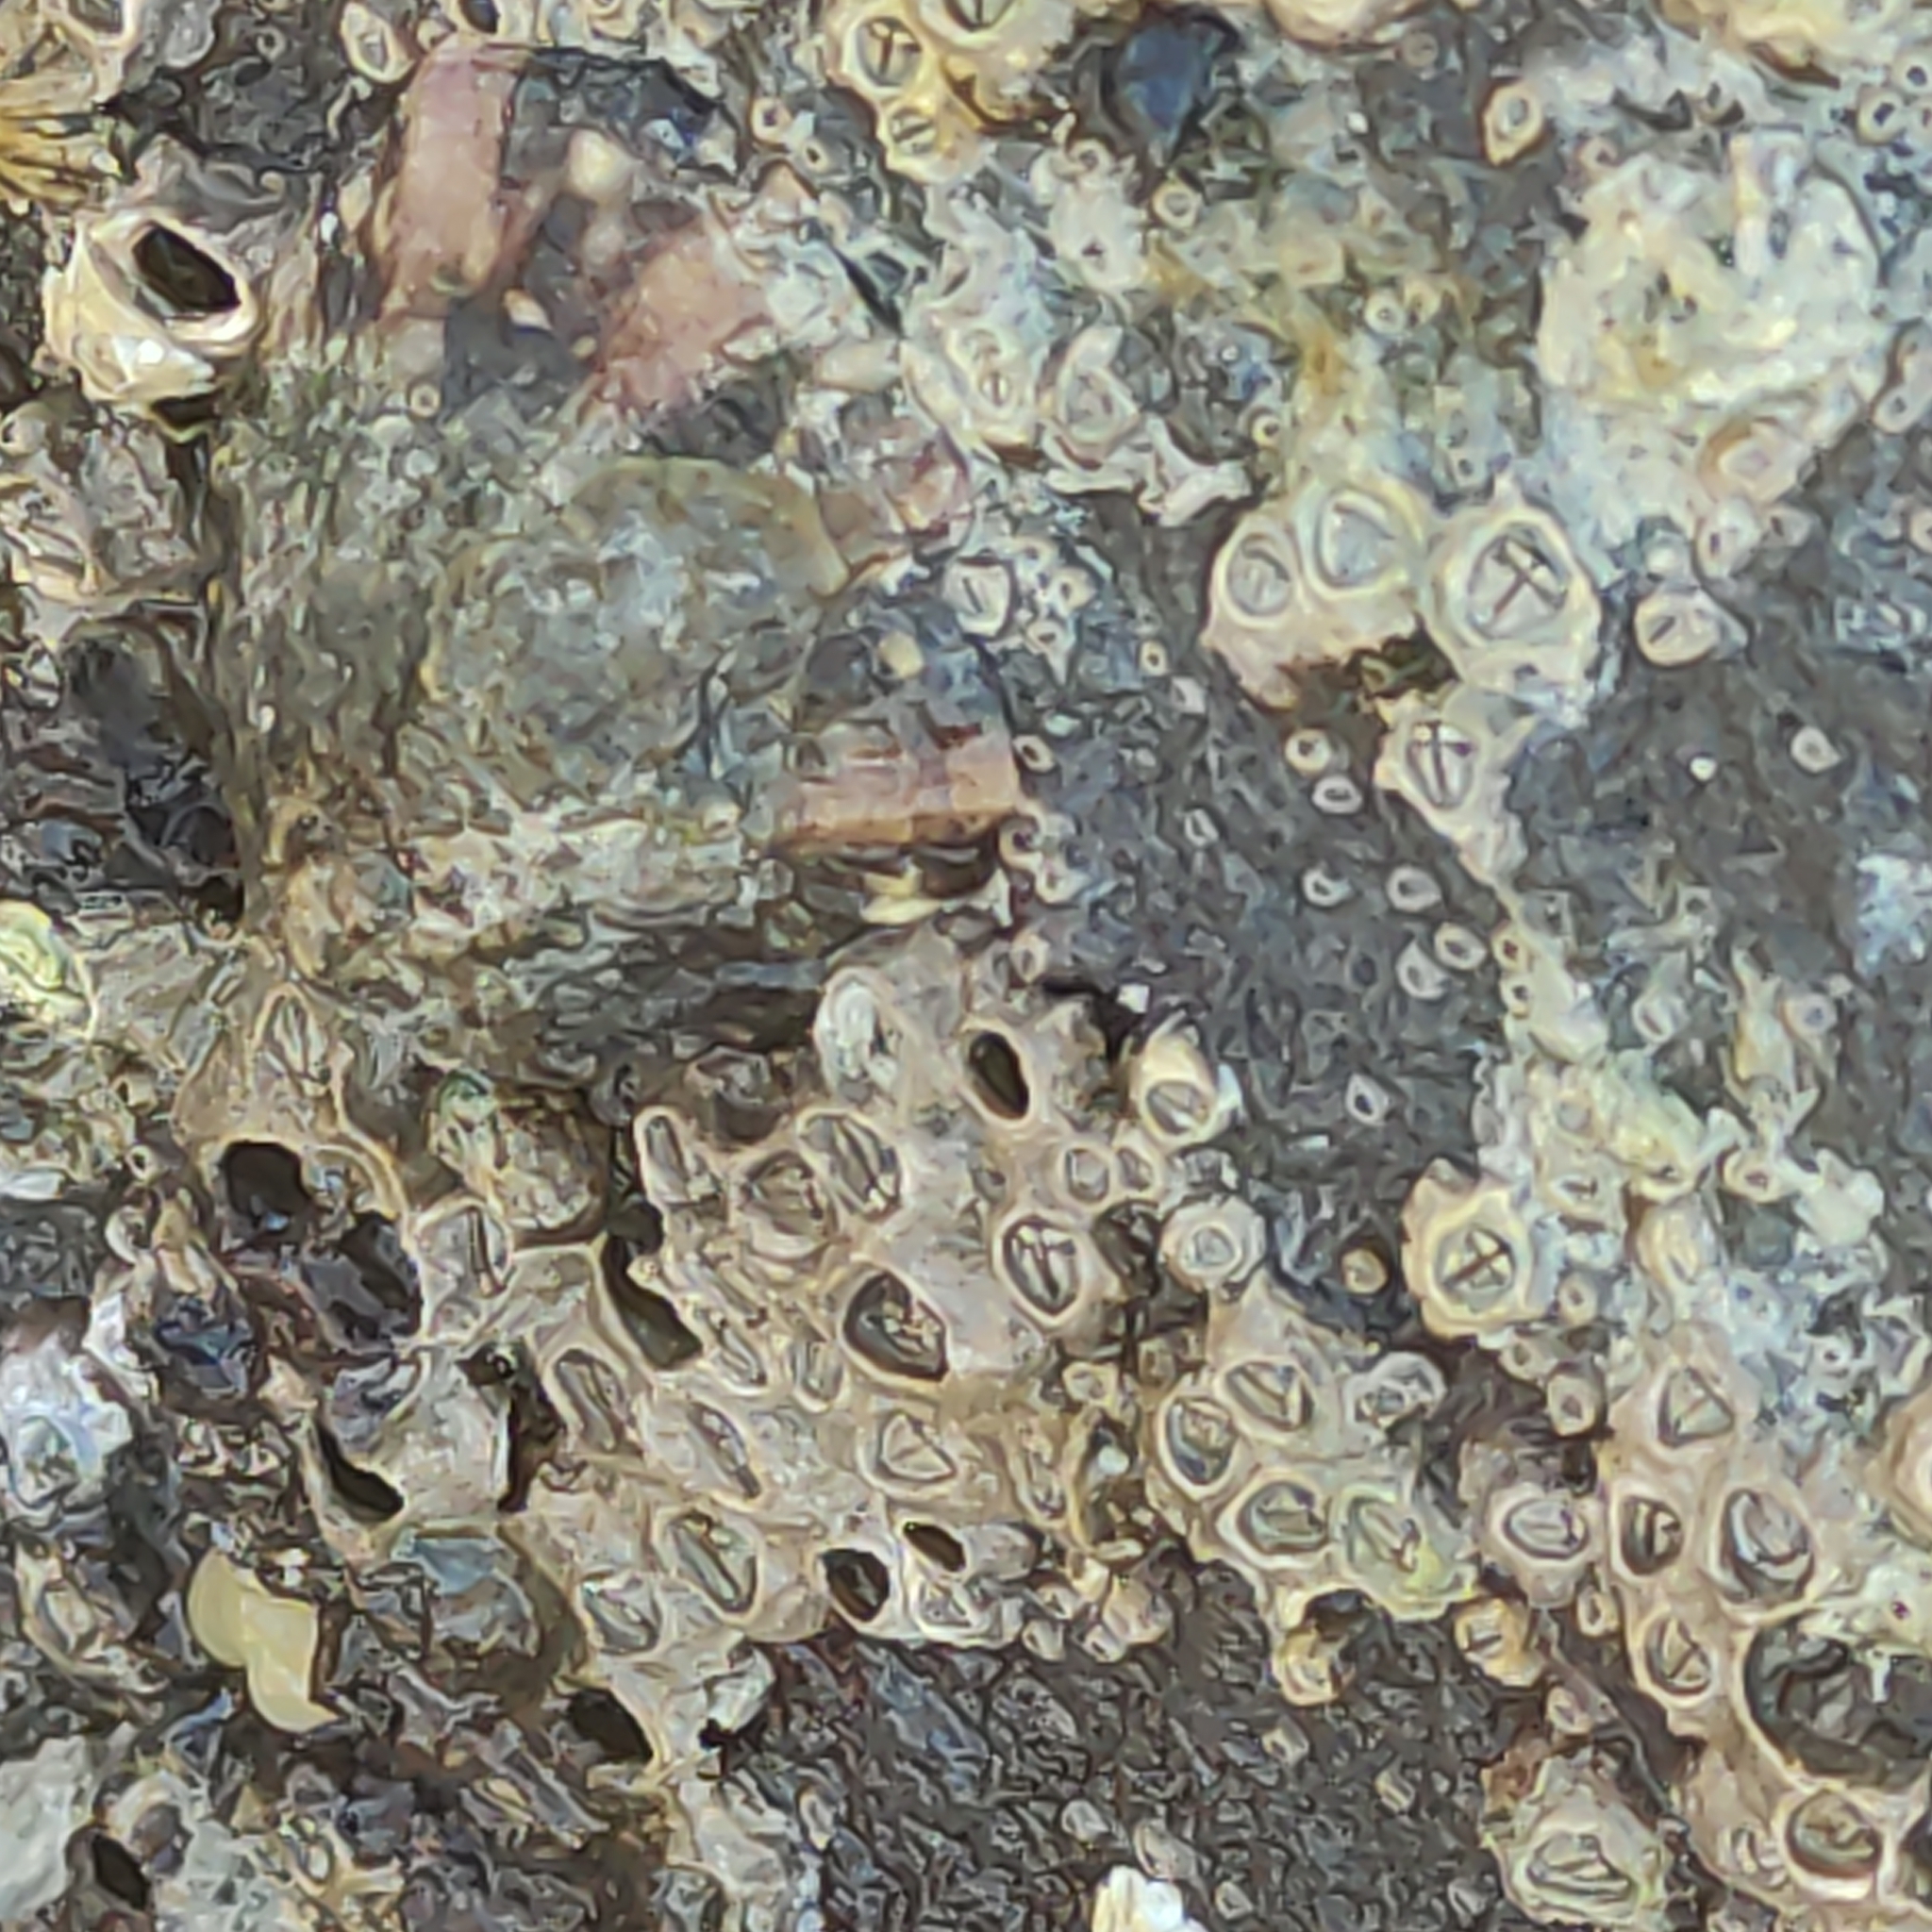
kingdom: Animalia
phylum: Arthropoda
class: Maxillopoda
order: Sessilia
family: Chthamalidae
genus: Chamaesipho
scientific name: Chamaesipho columna
